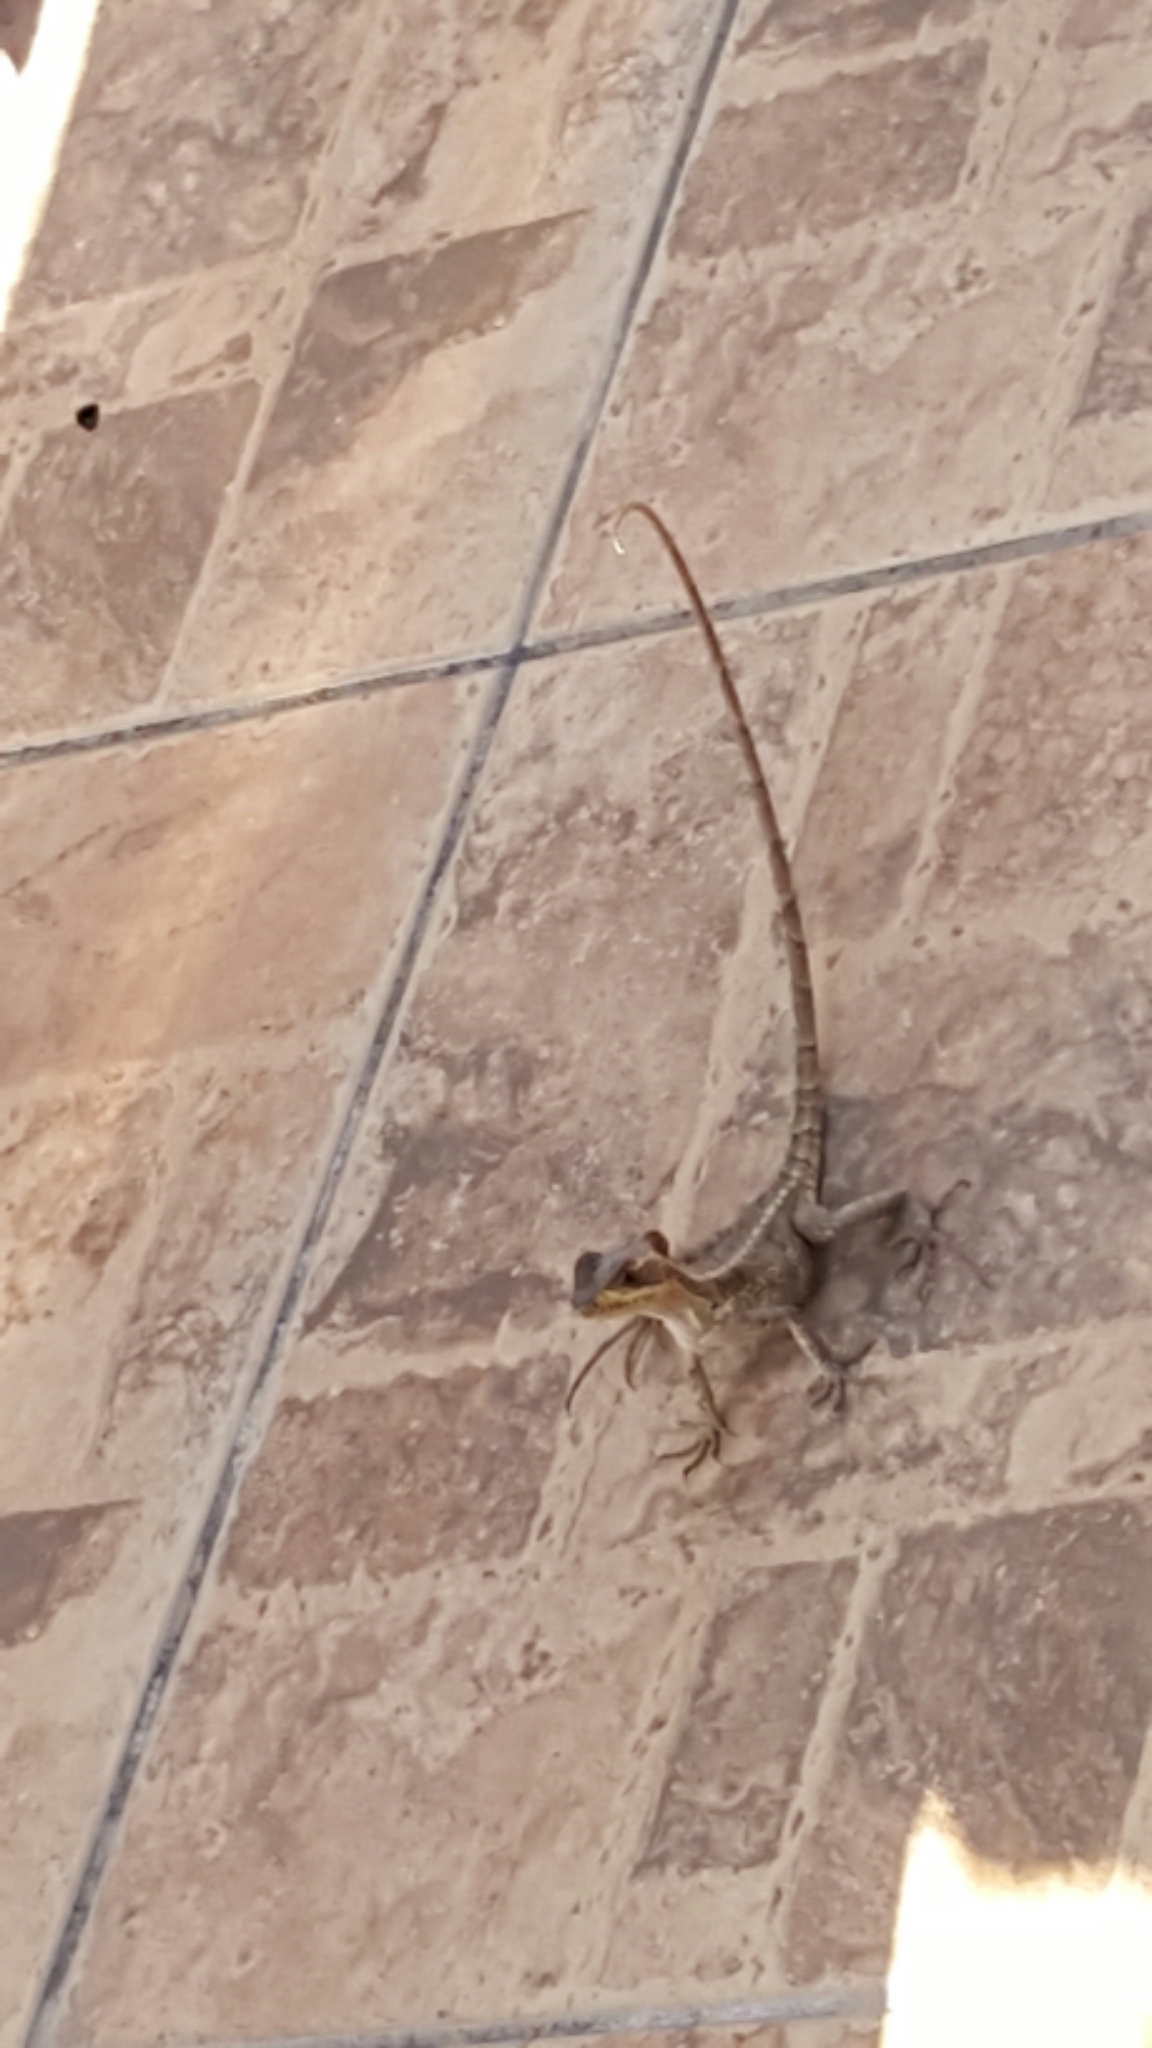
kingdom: Animalia
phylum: Chordata
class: Squamata
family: Corytophanidae
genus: Basiliscus
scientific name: Basiliscus vittatus
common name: Brown basilisk
